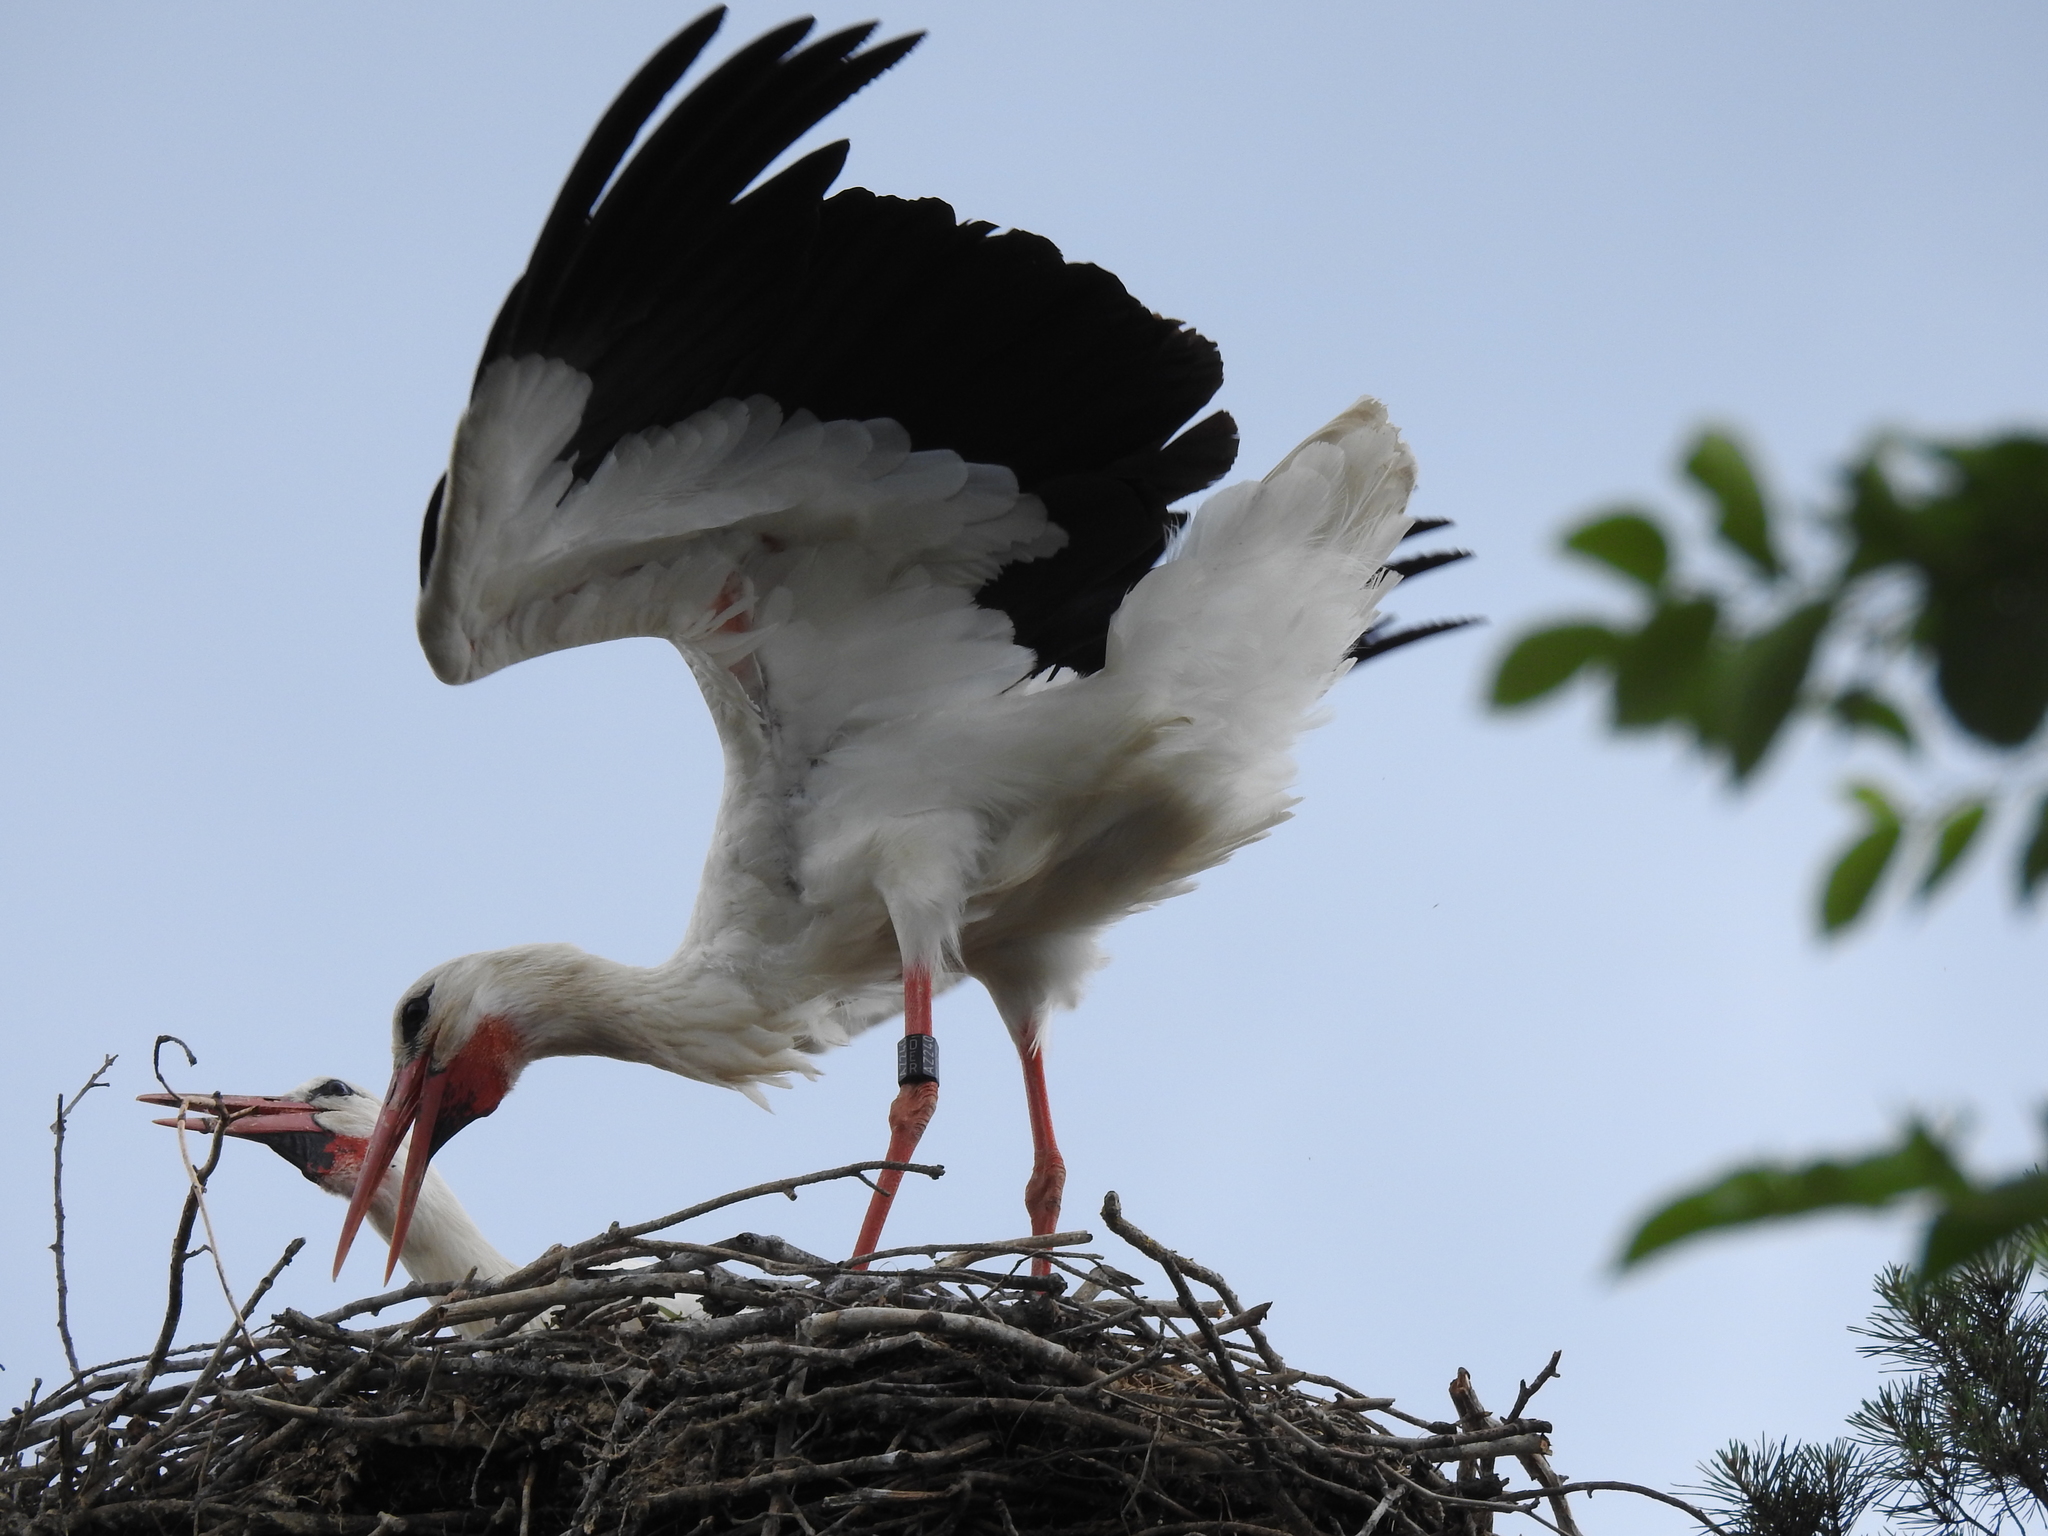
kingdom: Animalia
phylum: Chordata
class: Aves
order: Ciconiiformes
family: Ciconiidae
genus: Ciconia
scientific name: Ciconia ciconia
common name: White stork
